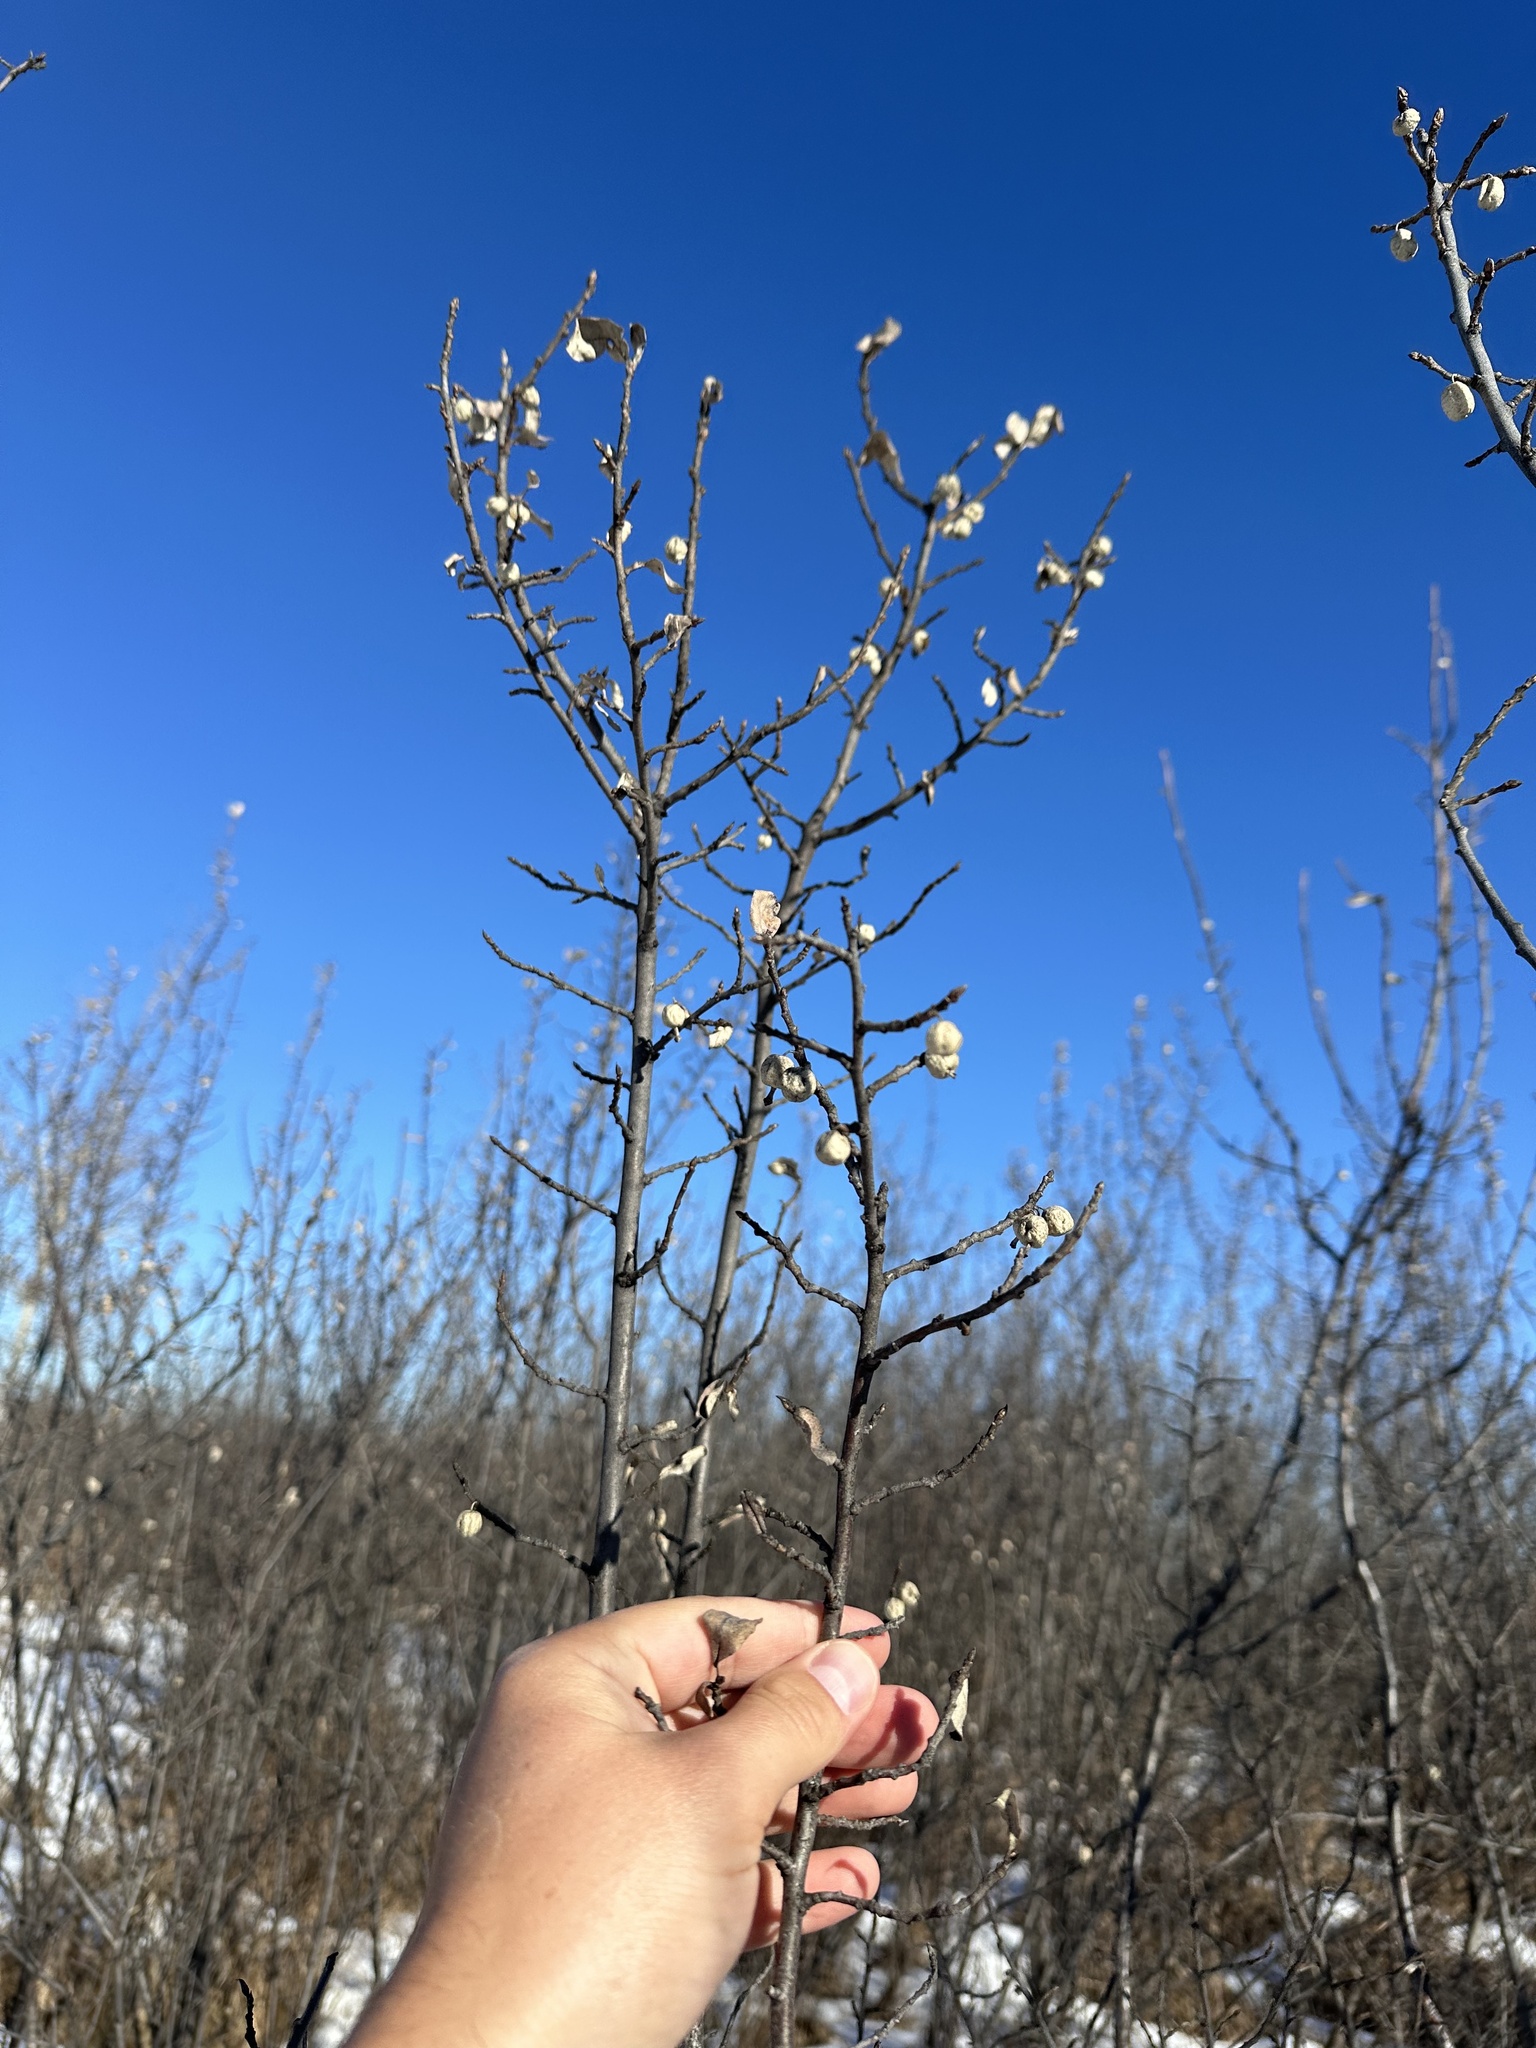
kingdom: Plantae
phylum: Tracheophyta
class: Magnoliopsida
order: Rosales
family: Elaeagnaceae
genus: Elaeagnus
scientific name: Elaeagnus commutata
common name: Silverberry
